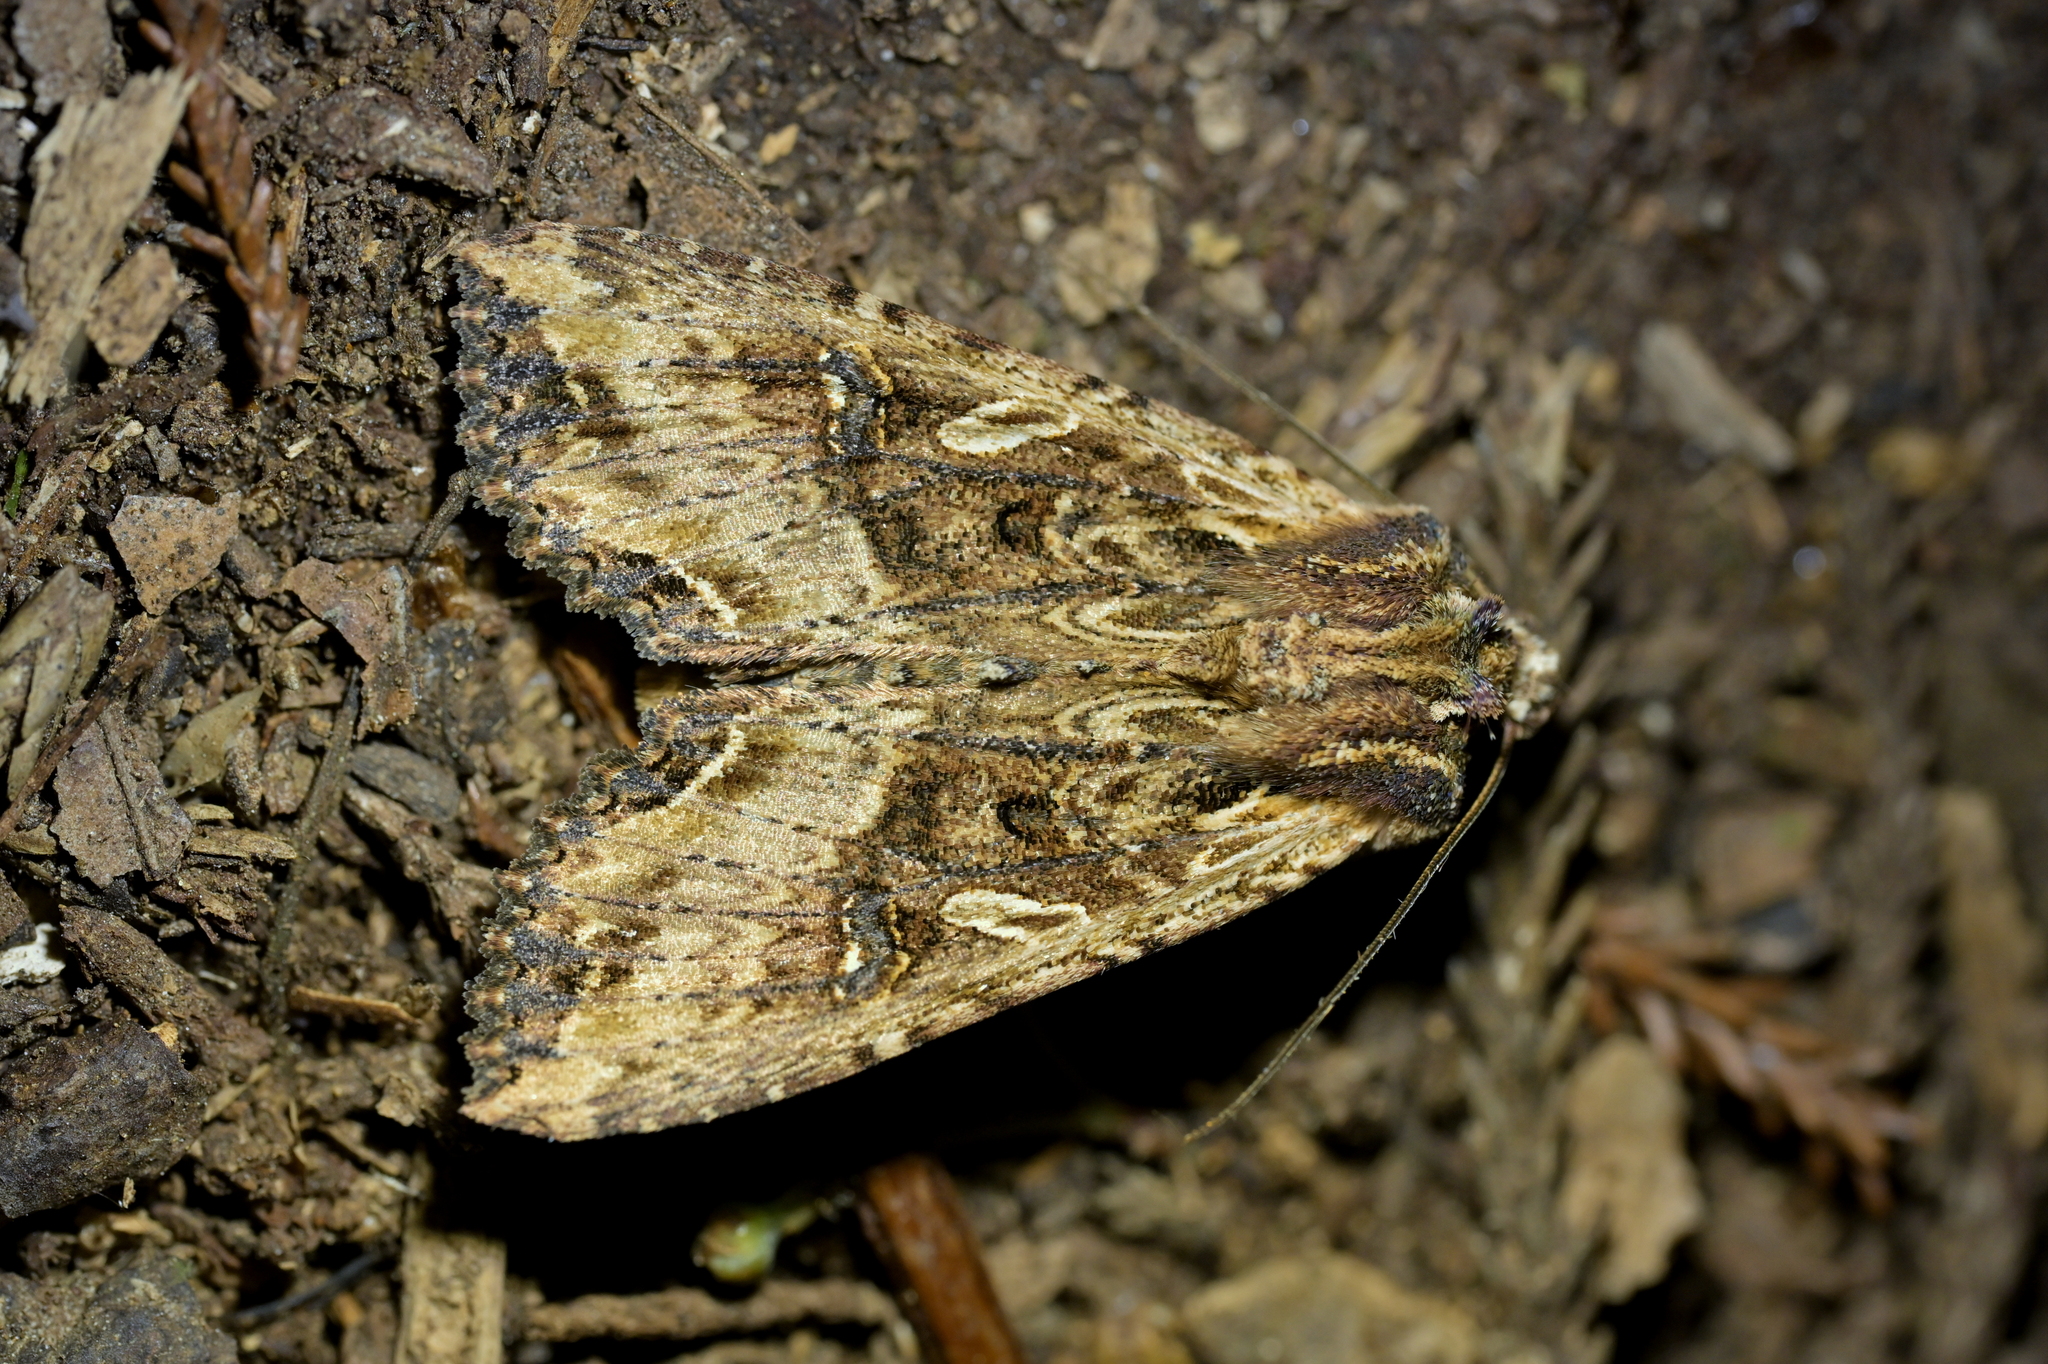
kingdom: Animalia
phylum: Arthropoda
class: Insecta
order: Lepidoptera
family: Noctuidae
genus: Meterana
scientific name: Meterana stipata
